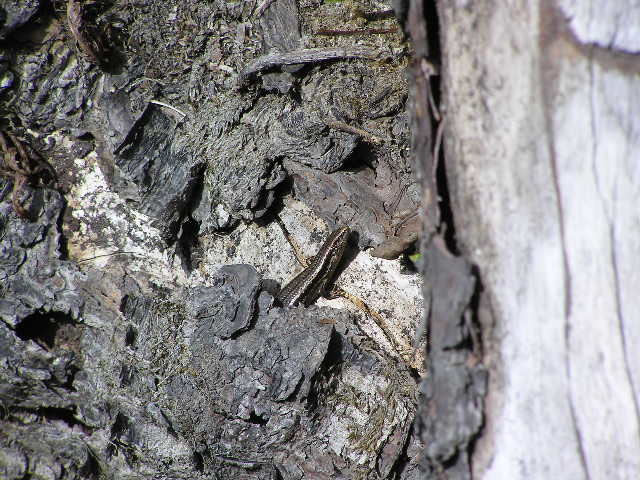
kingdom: Animalia
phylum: Chordata
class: Squamata
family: Scincidae
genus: Oligosoma
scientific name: Oligosoma polychroma
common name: Common new zealand skink
